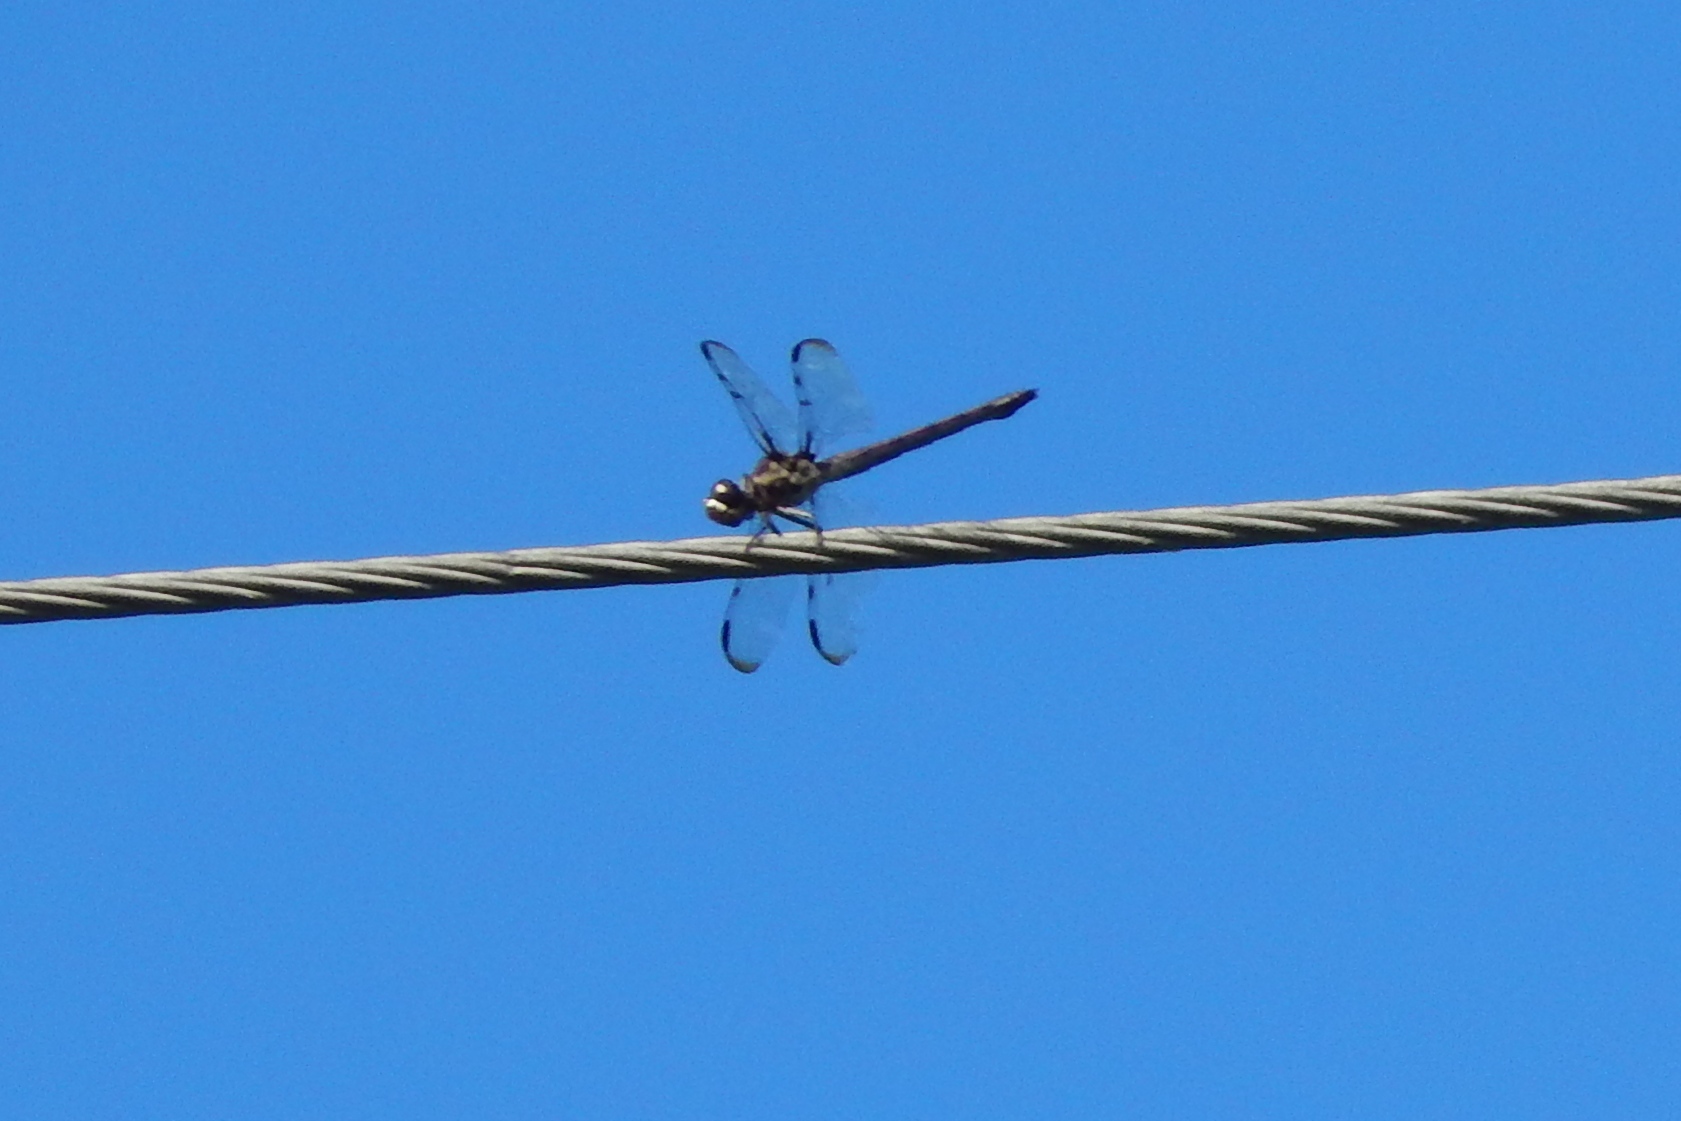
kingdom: Animalia
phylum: Arthropoda
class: Insecta
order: Odonata
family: Libellulidae
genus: Libellula
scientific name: Libellula vibrans
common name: Great blue skimmer
